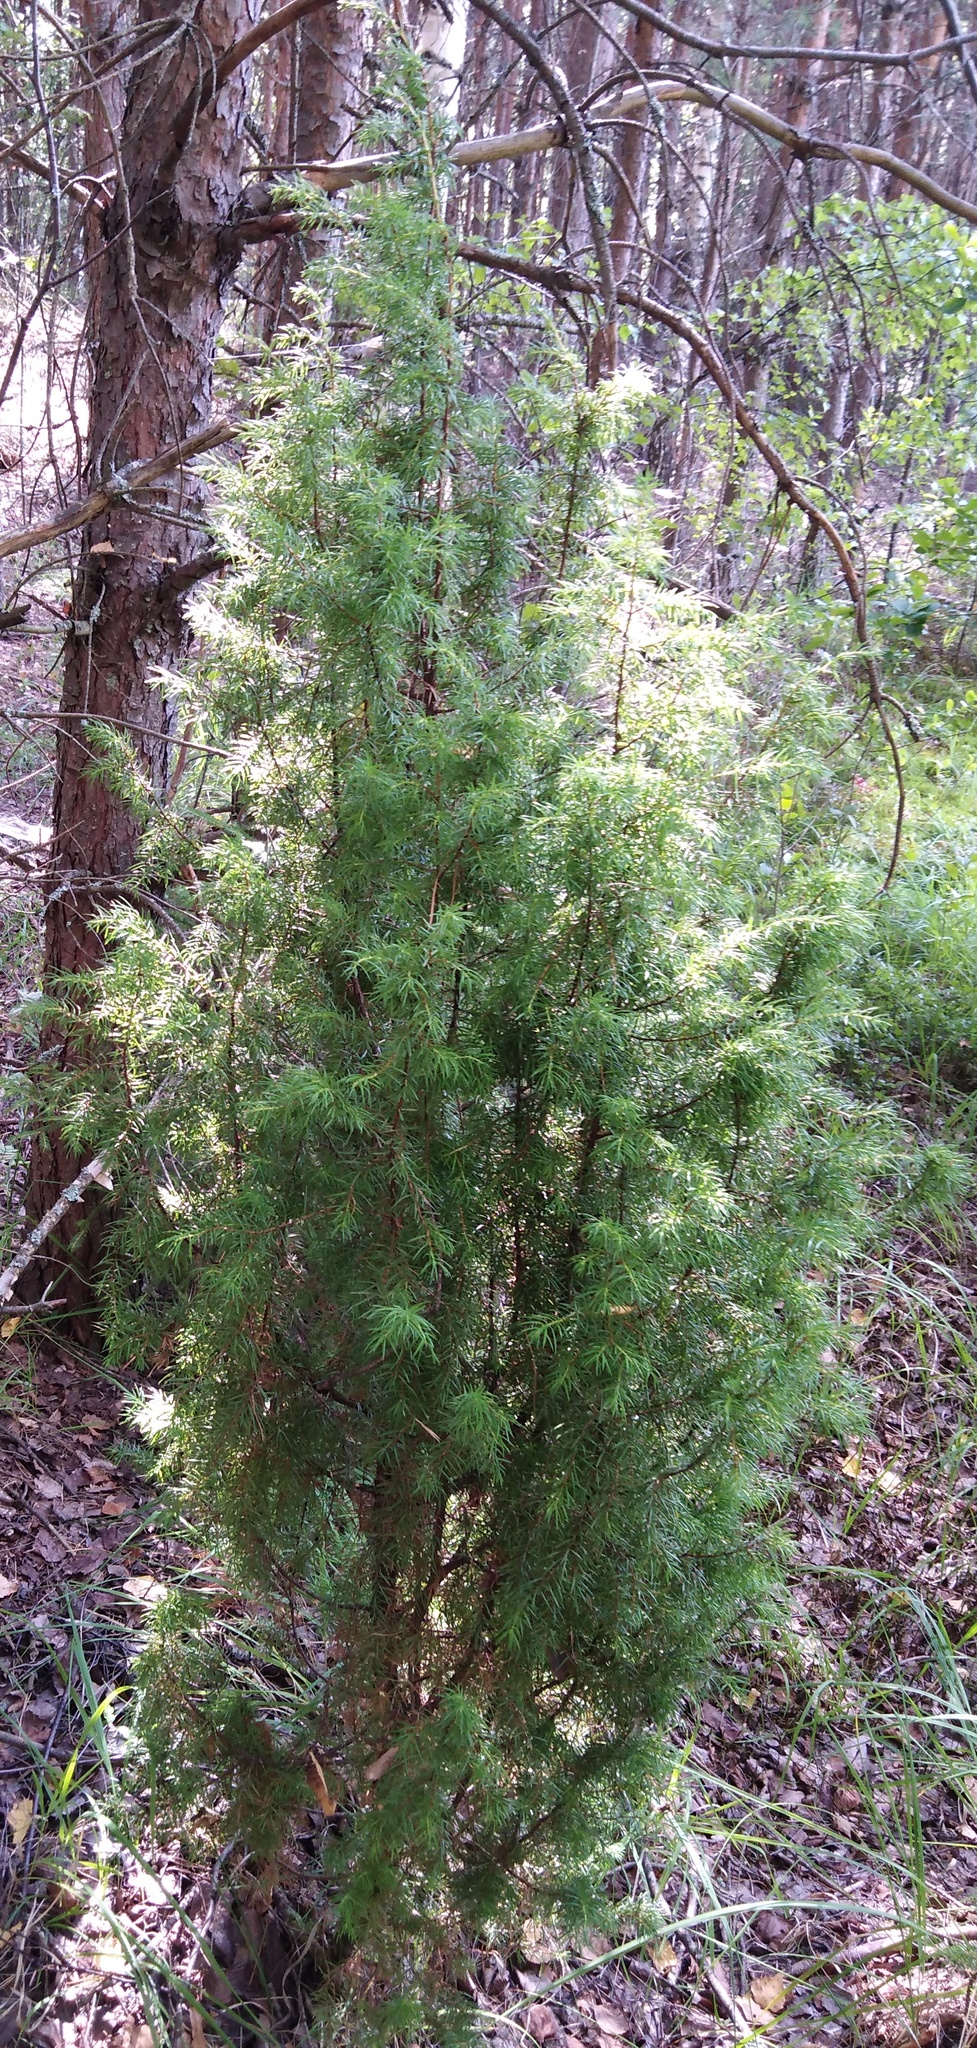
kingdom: Plantae
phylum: Tracheophyta
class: Pinopsida
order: Pinales
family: Cupressaceae
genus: Juniperus
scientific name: Juniperus communis
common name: Common juniper
